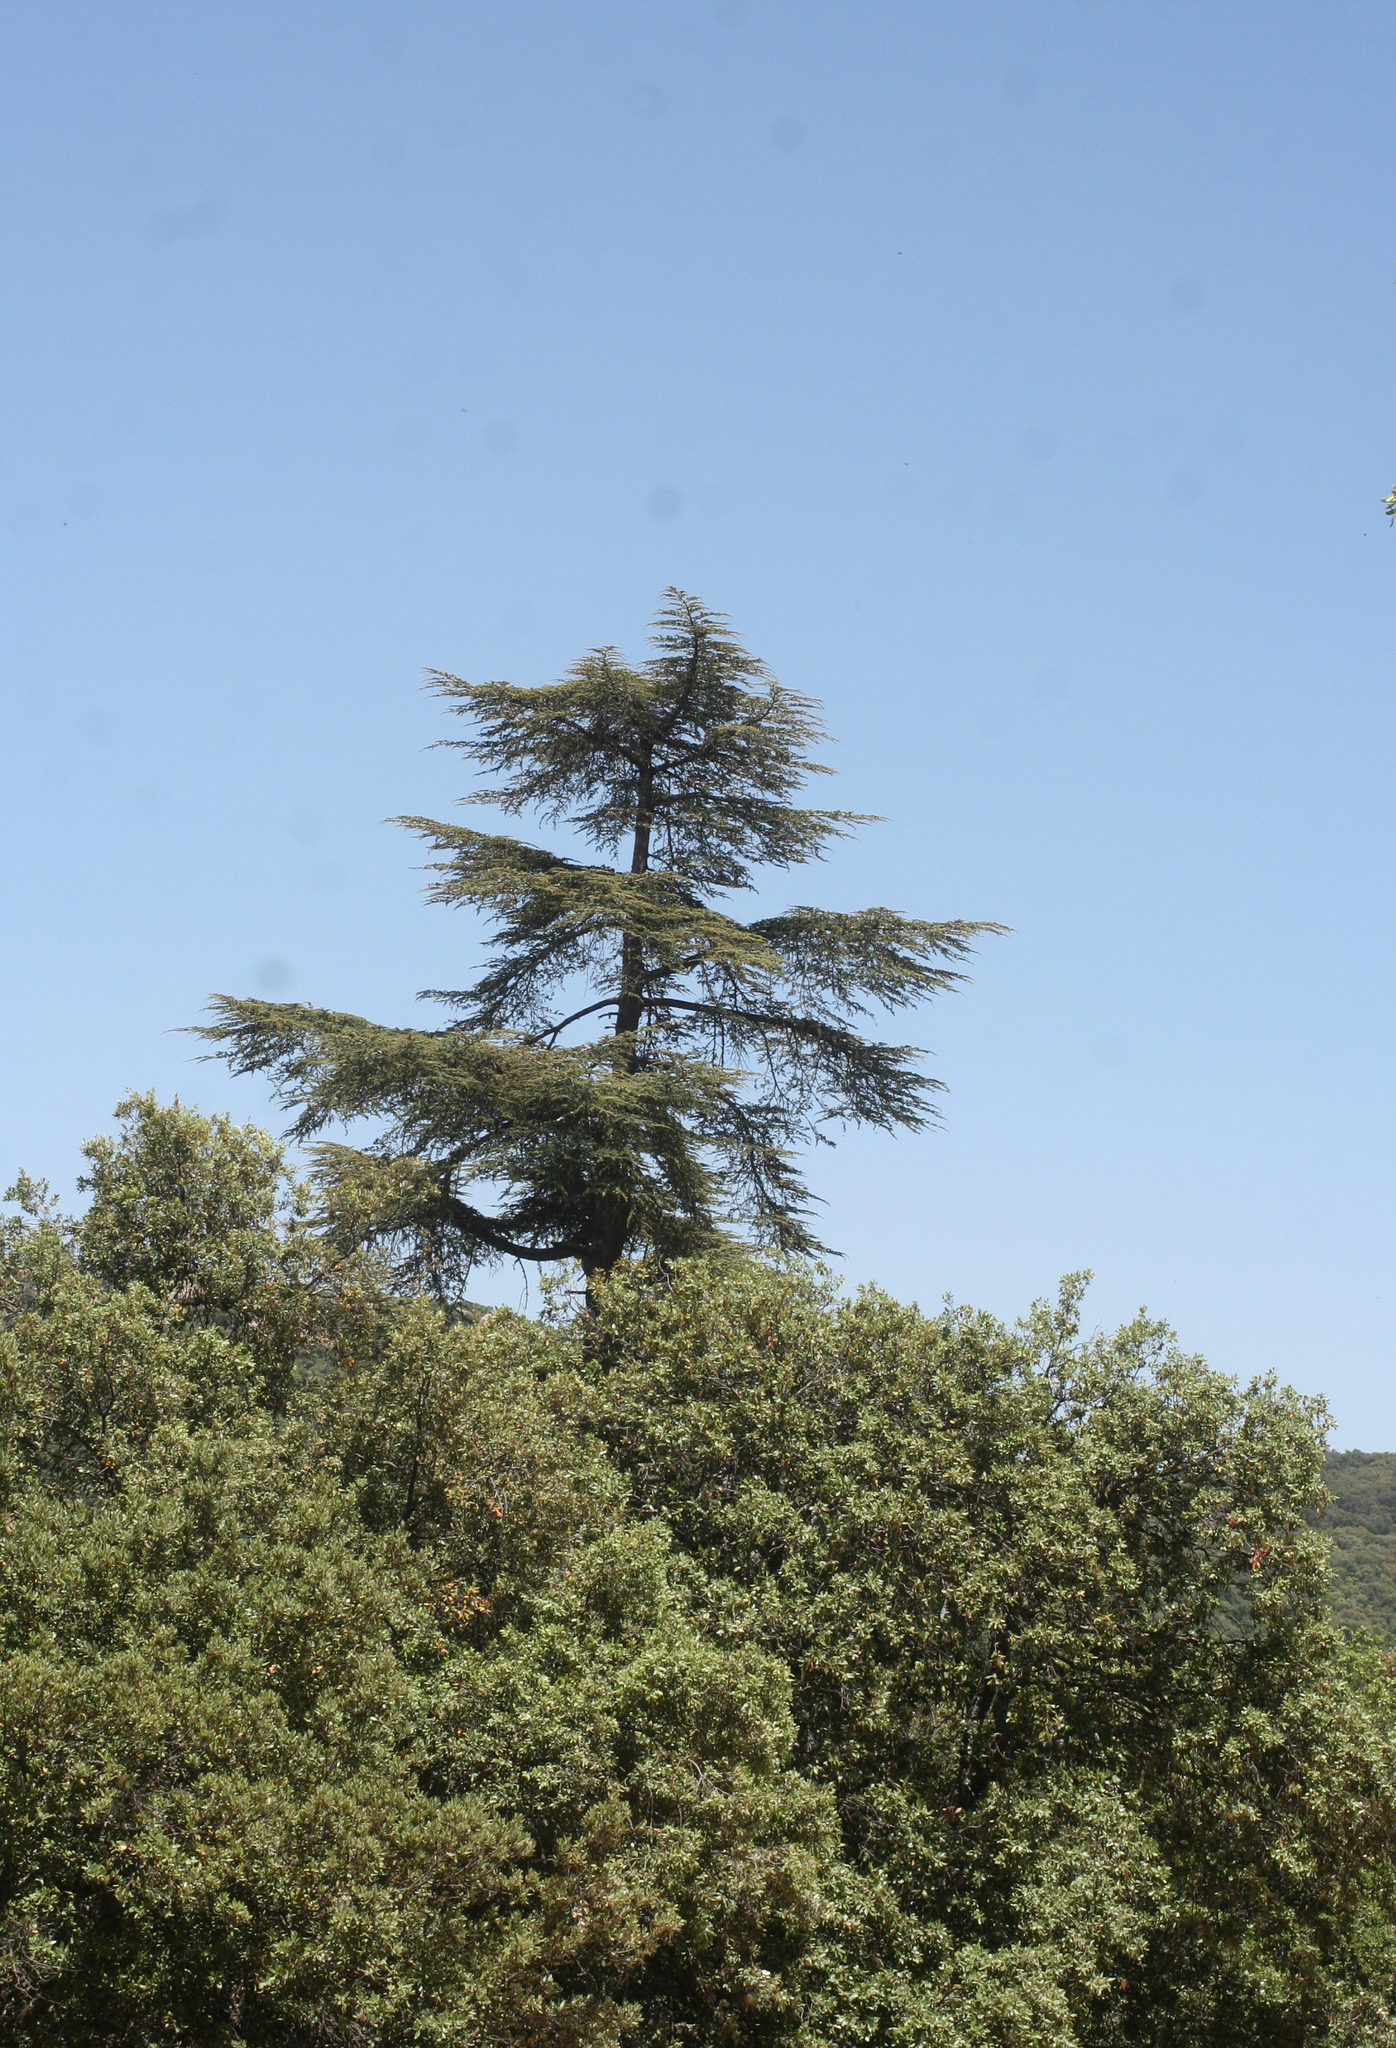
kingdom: Plantae
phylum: Tracheophyta
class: Pinopsida
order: Pinales
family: Pinaceae
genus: Cedrus
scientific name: Cedrus atlantica
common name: Atlas cedar
